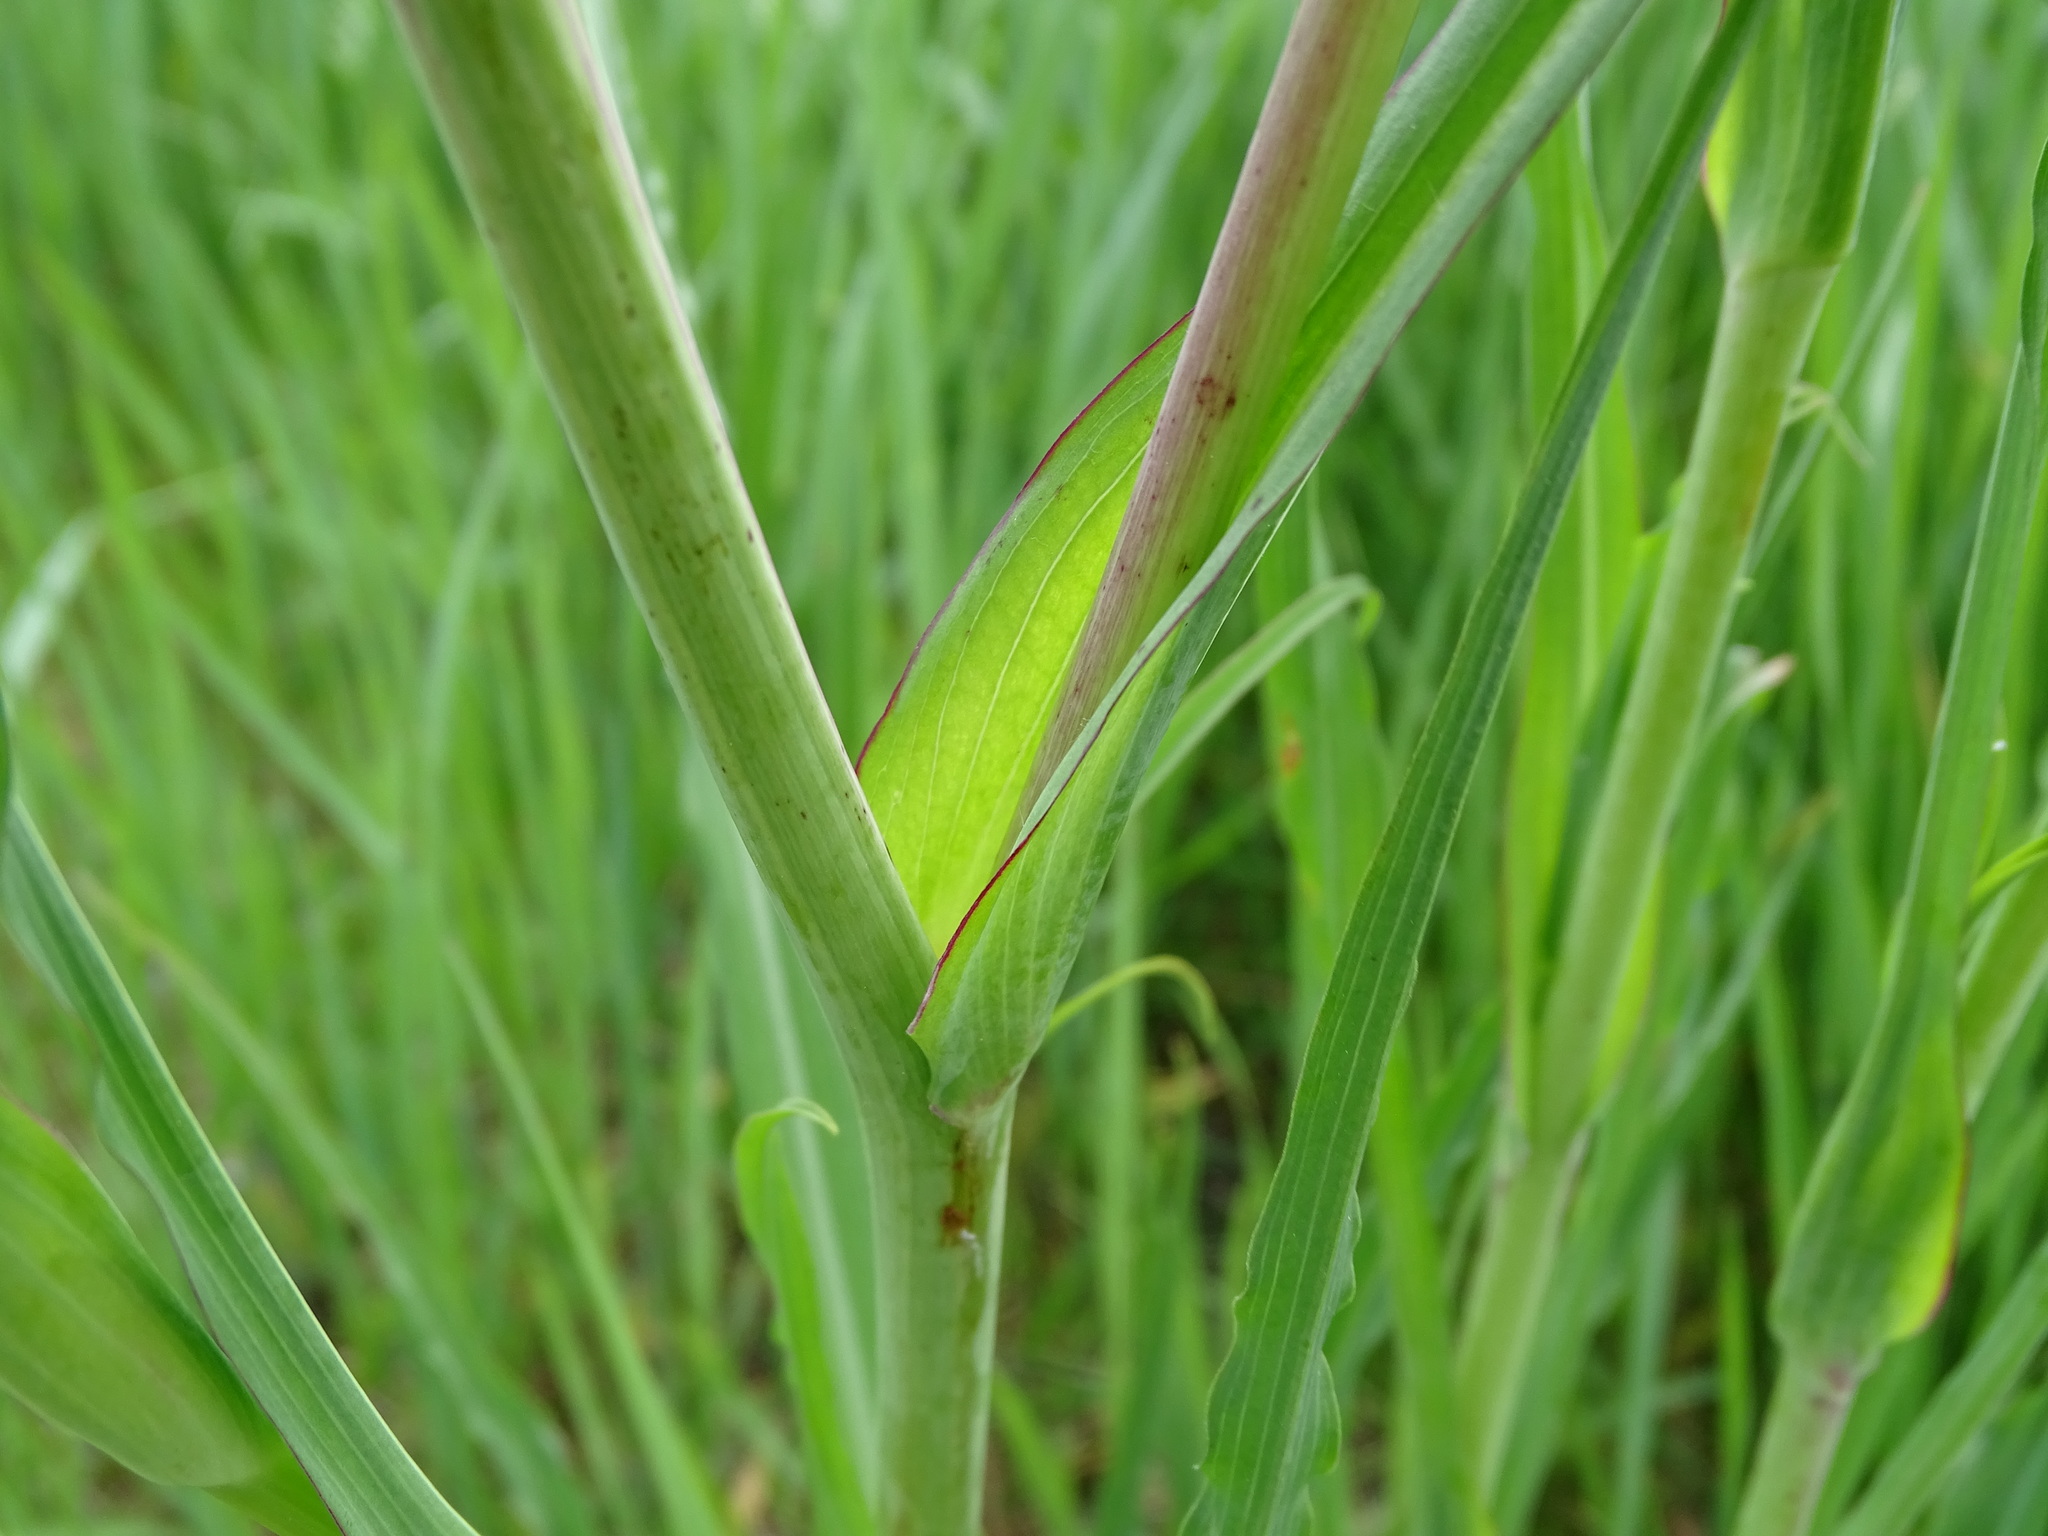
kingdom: Plantae
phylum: Tracheophyta
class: Magnoliopsida
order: Asterales
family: Asteraceae
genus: Tragopogon
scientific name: Tragopogon pratensis
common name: Goat's-beard
